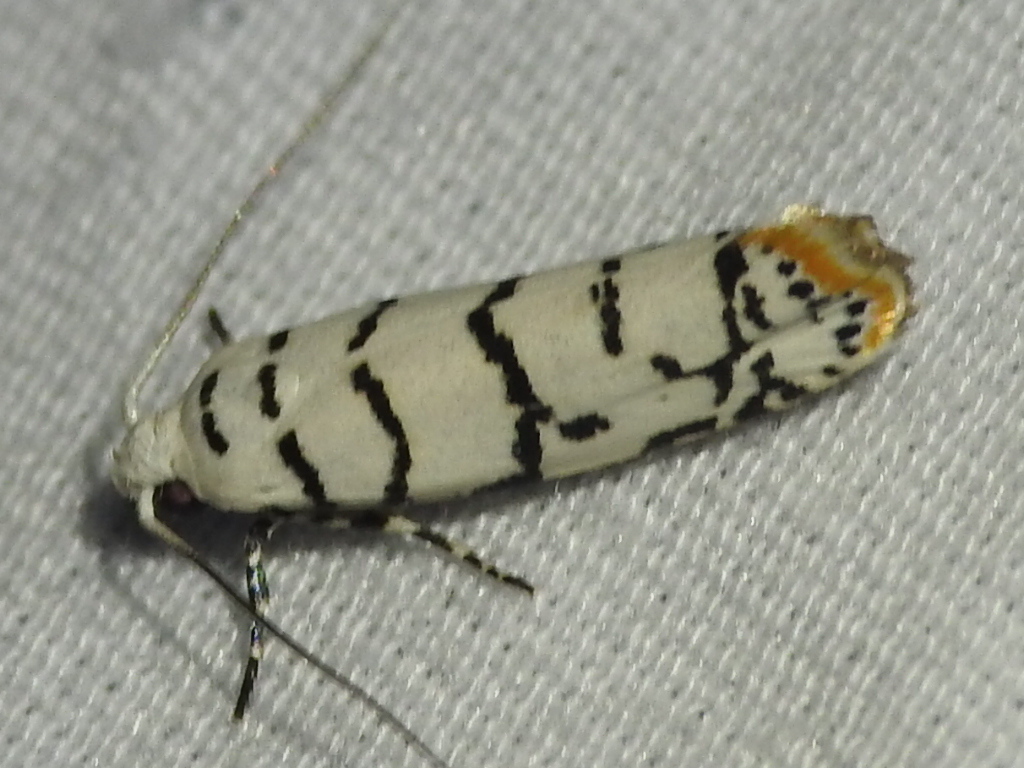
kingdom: Animalia
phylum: Arthropoda
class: Insecta
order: Lepidoptera
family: Ethmiidae
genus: Ethmia
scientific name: Ethmia delliella
